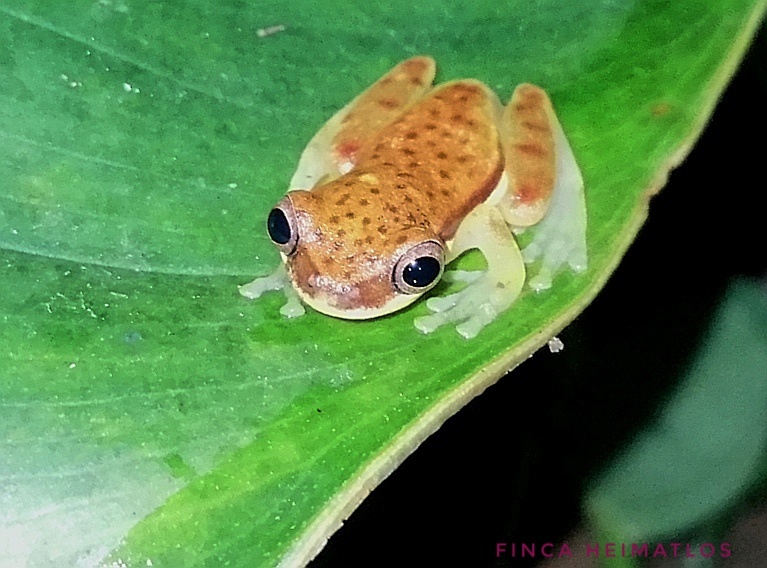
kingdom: Animalia
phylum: Chordata
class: Amphibia
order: Anura
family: Hylidae
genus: Dendropsophus
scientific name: Dendropsophus rhodopeplus
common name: Red-skirted treefrog
